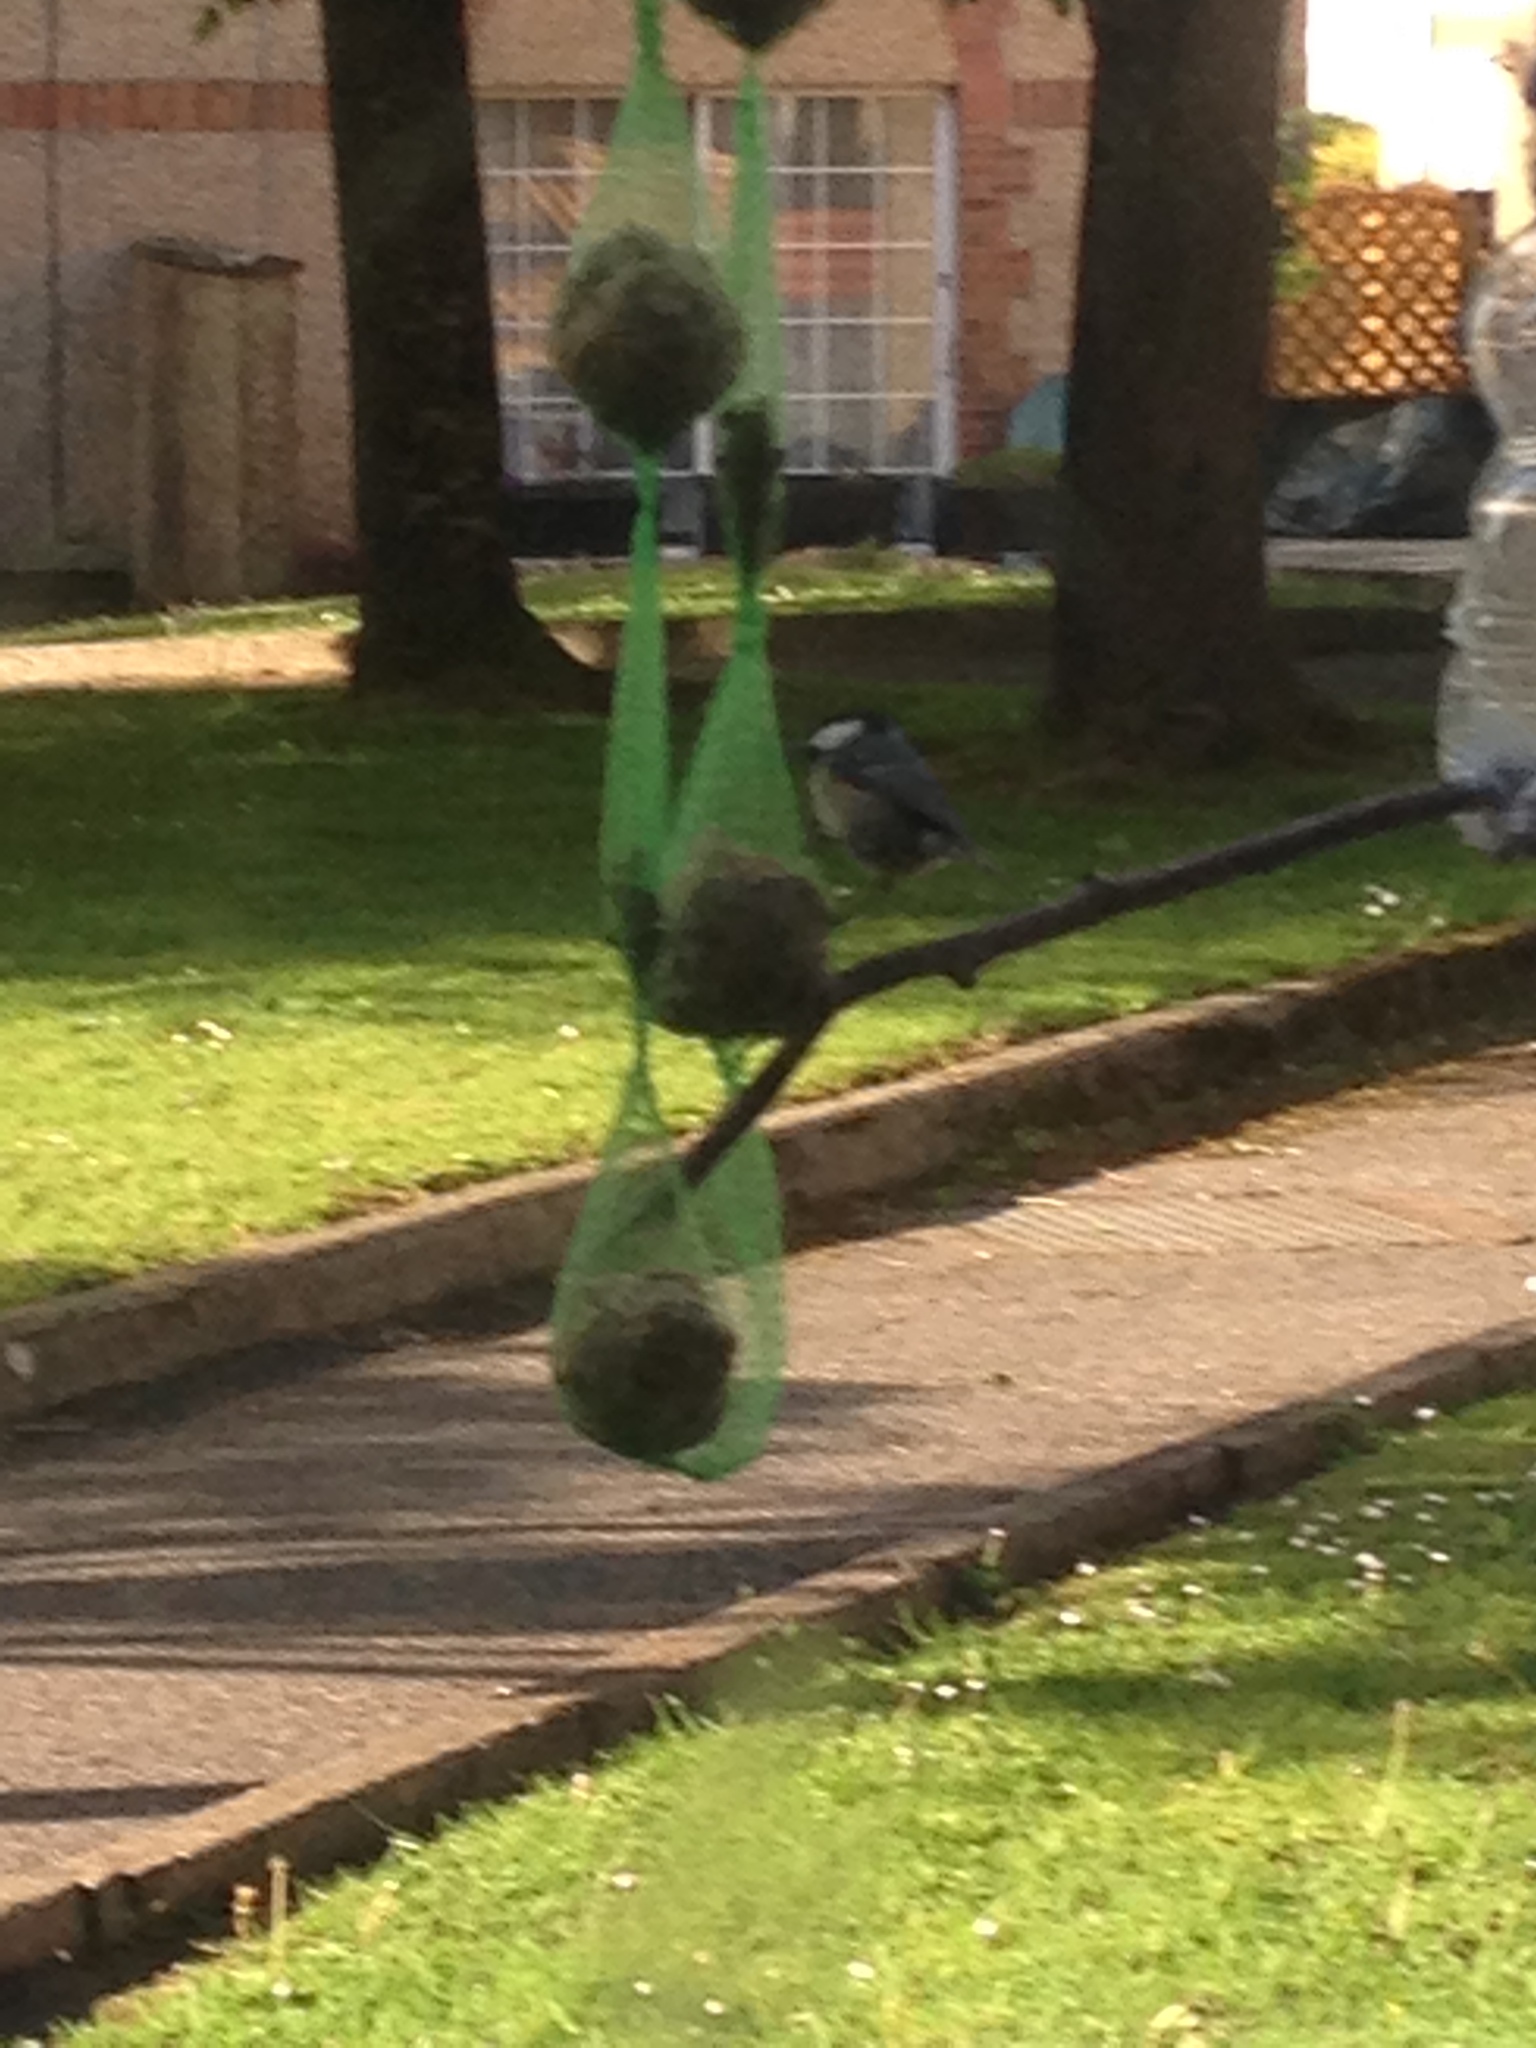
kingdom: Animalia
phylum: Chordata
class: Aves
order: Passeriformes
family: Paridae
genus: Periparus
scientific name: Periparus ater
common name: Coal tit
